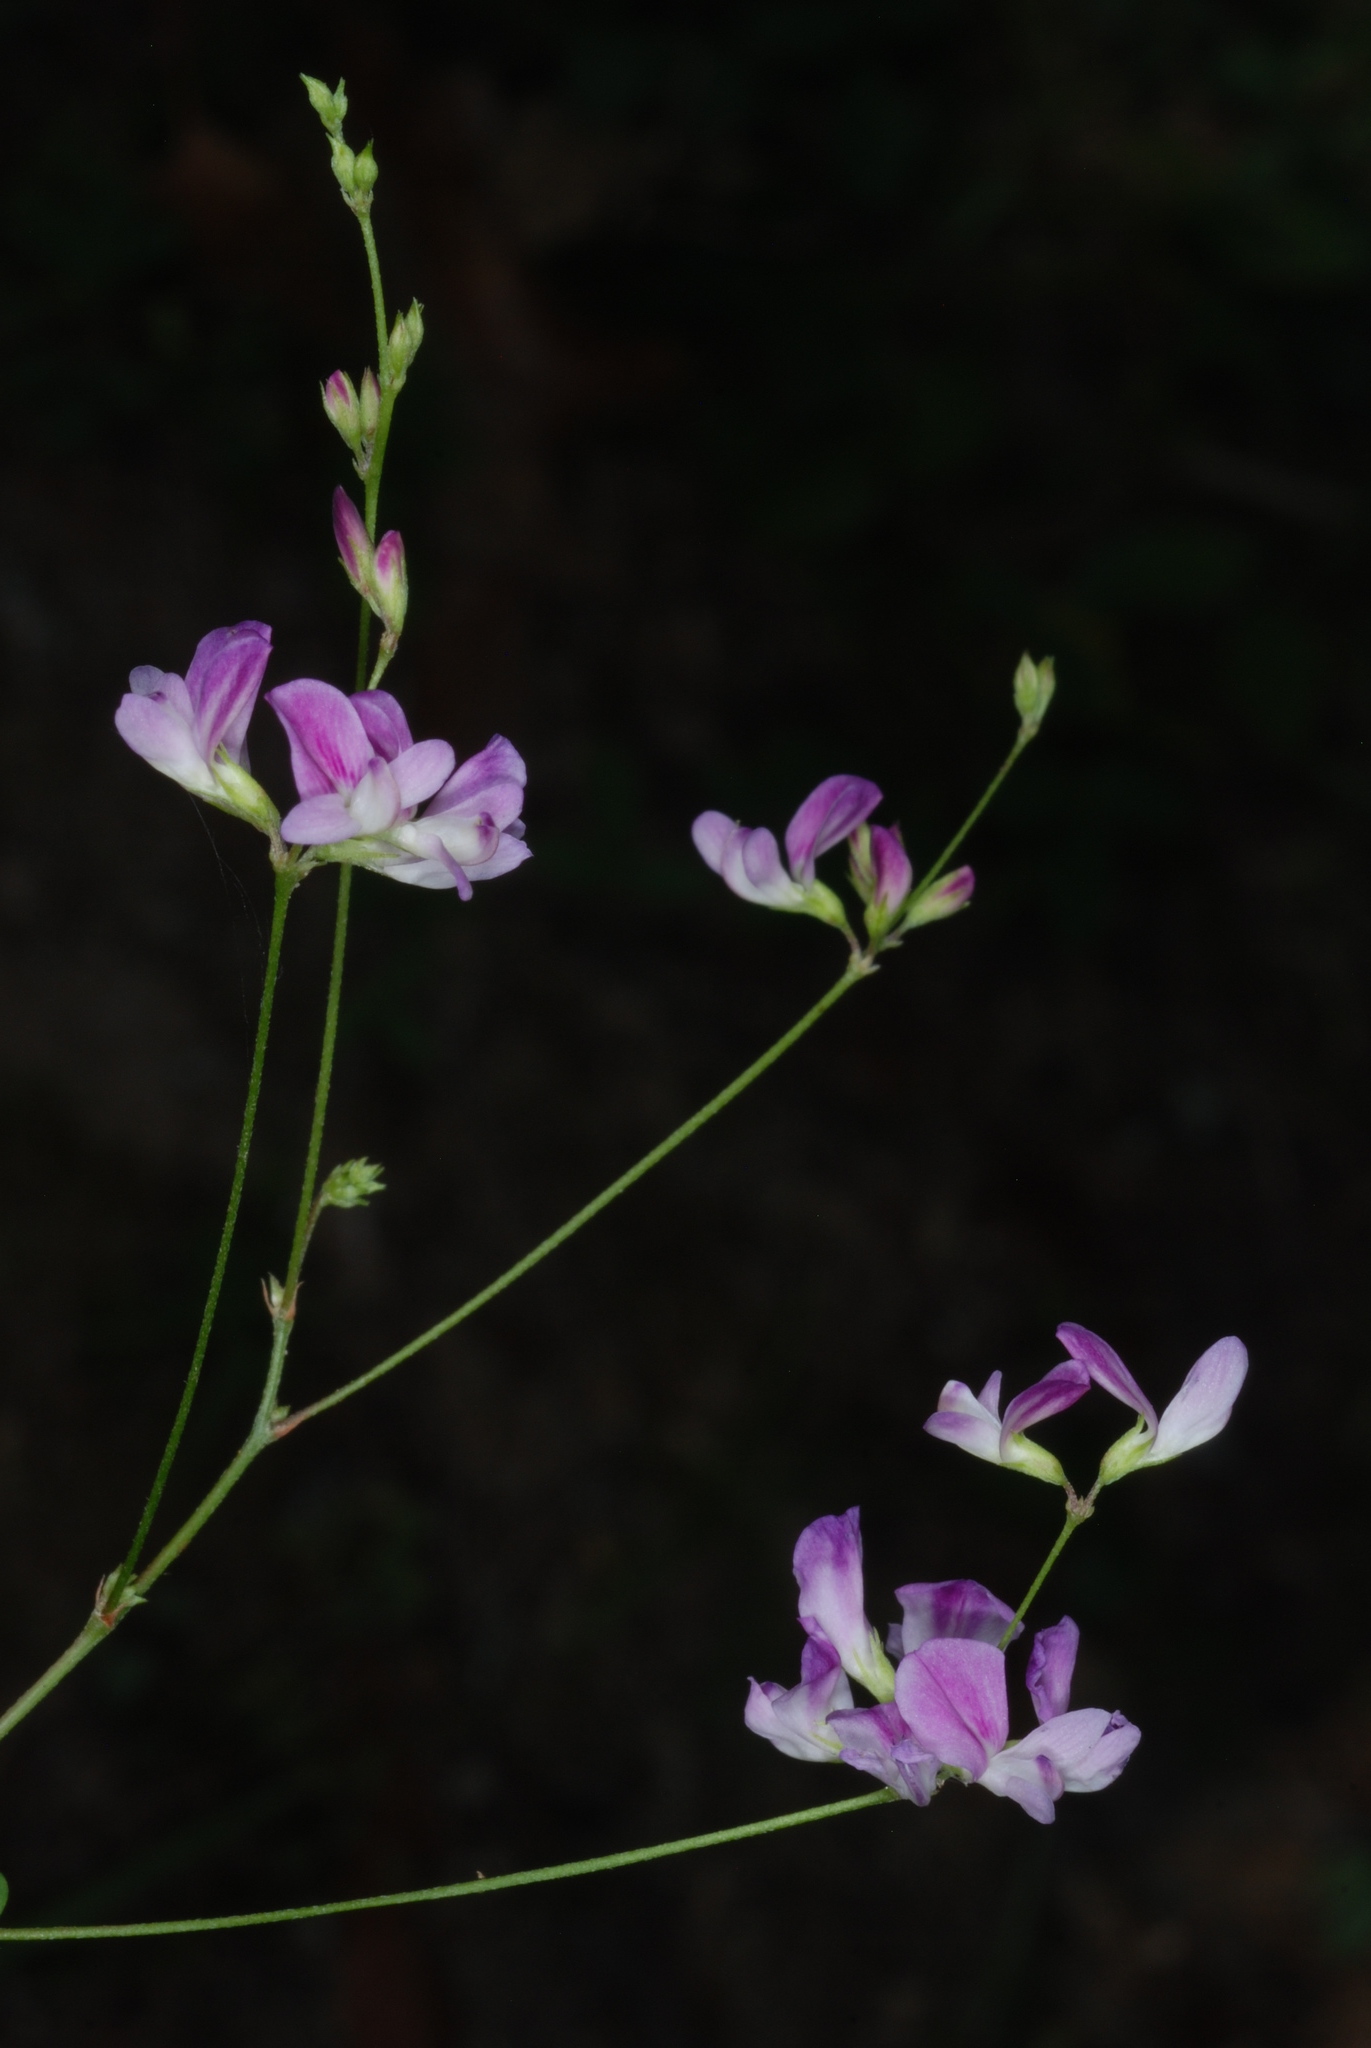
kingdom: Plantae
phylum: Tracheophyta
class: Magnoliopsida
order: Fabales
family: Fabaceae
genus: Lespedeza
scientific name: Lespedeza repens
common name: Creeping bush-clover
